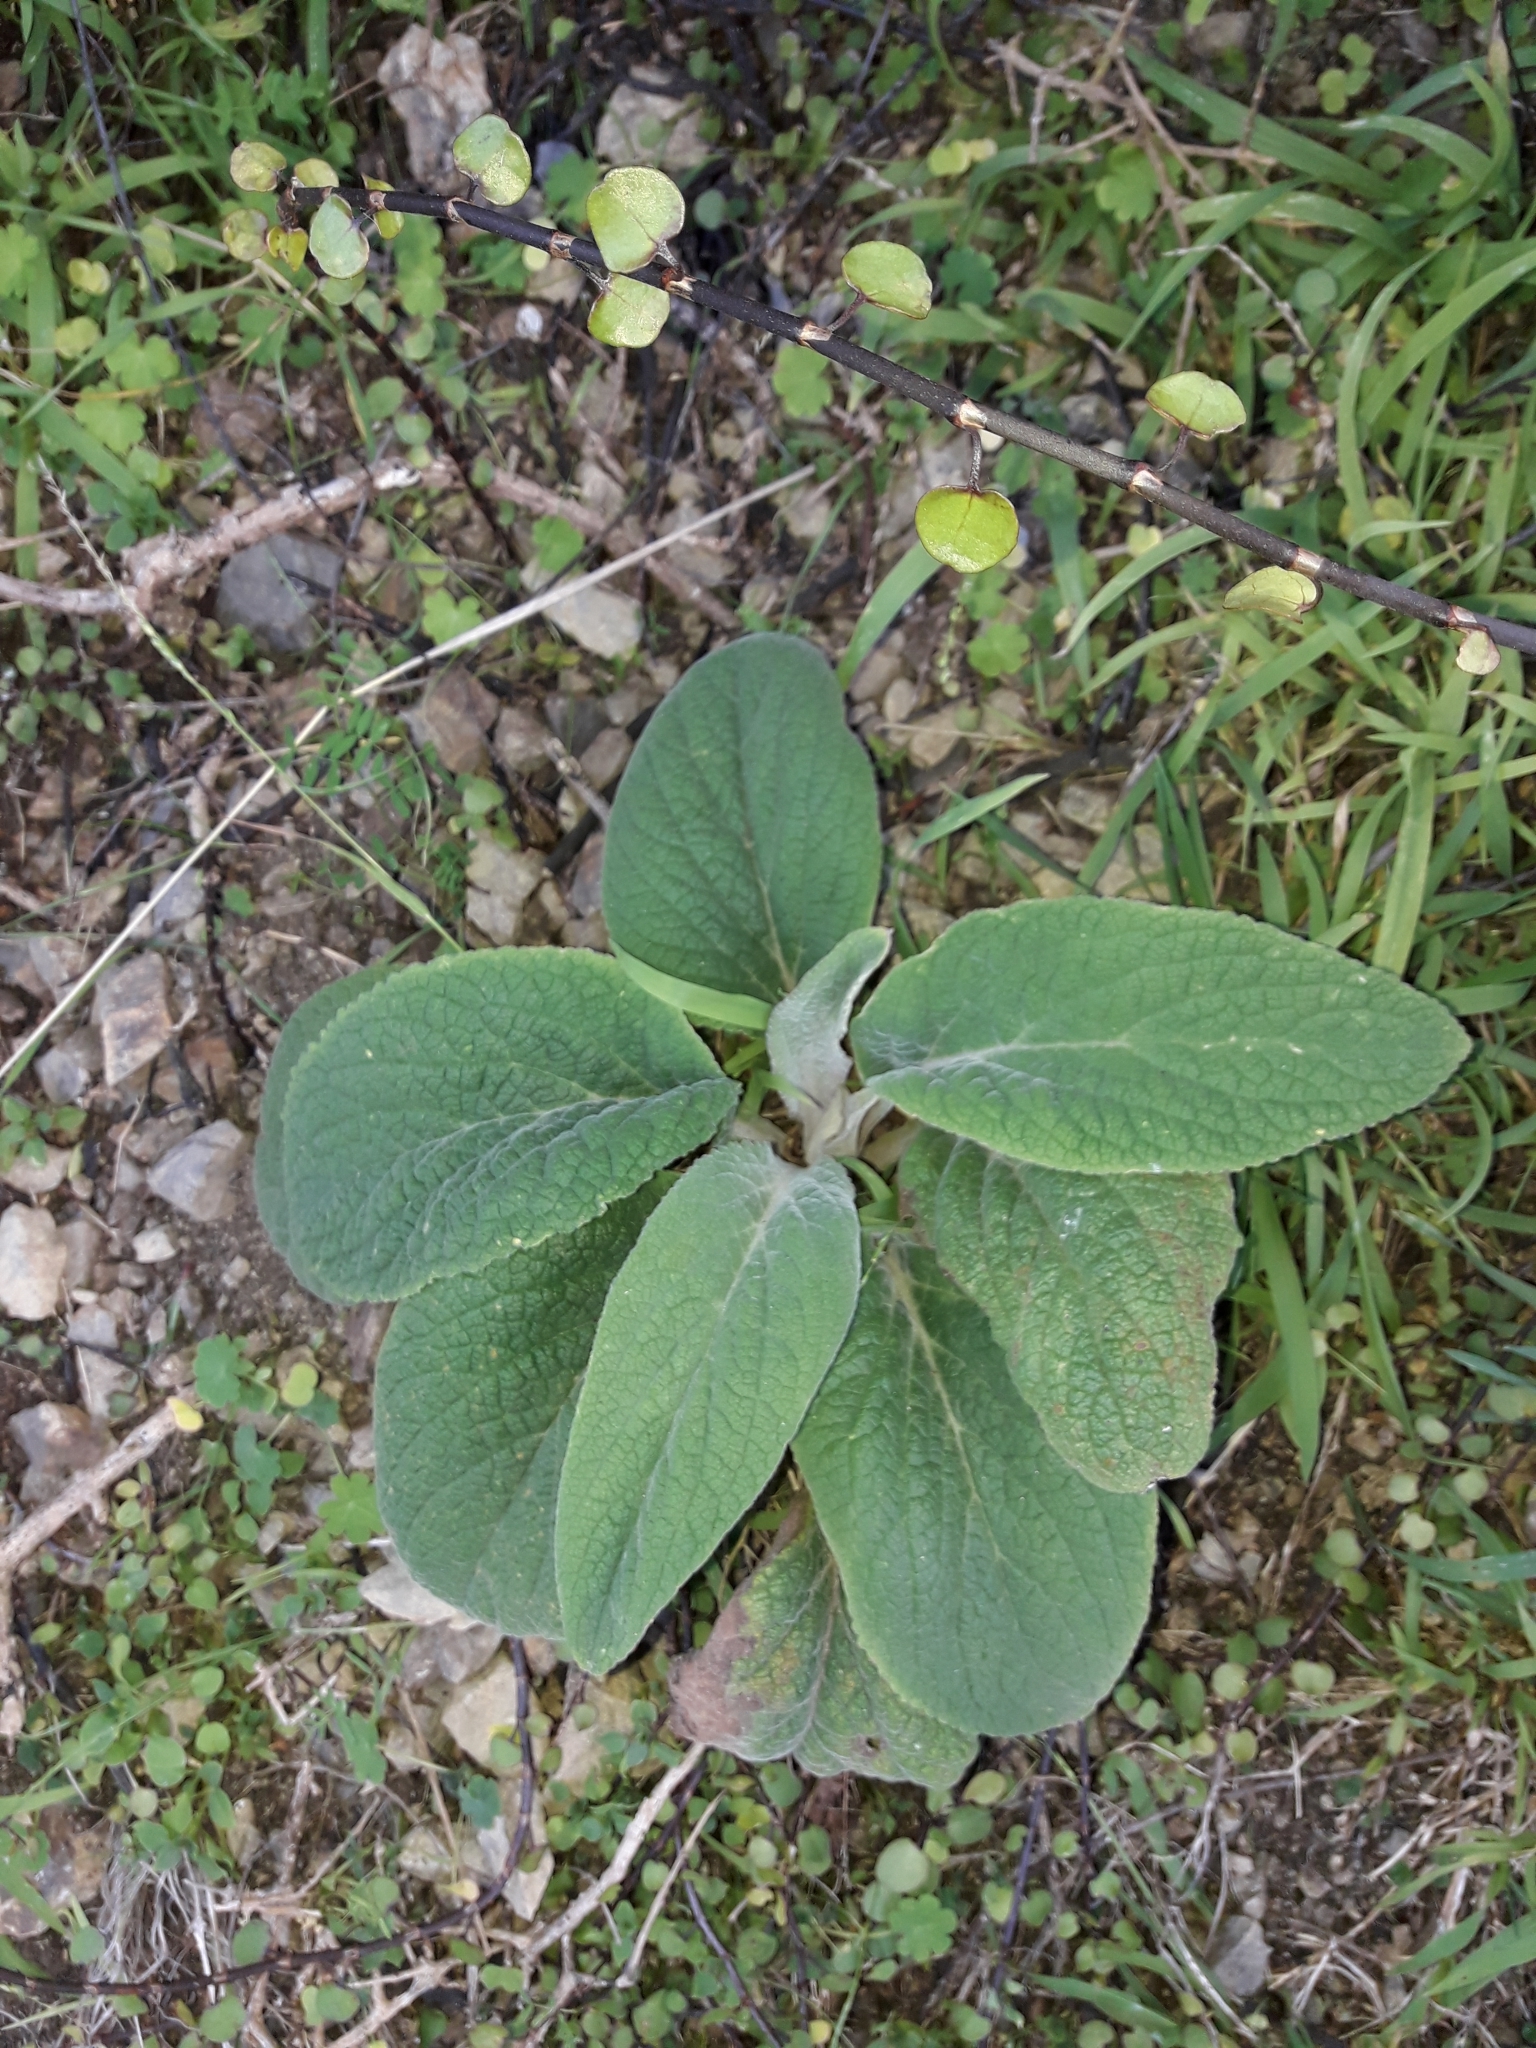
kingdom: Plantae
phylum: Tracheophyta
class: Magnoliopsida
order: Lamiales
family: Plantaginaceae
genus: Digitalis
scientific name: Digitalis purpurea
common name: Foxglove
